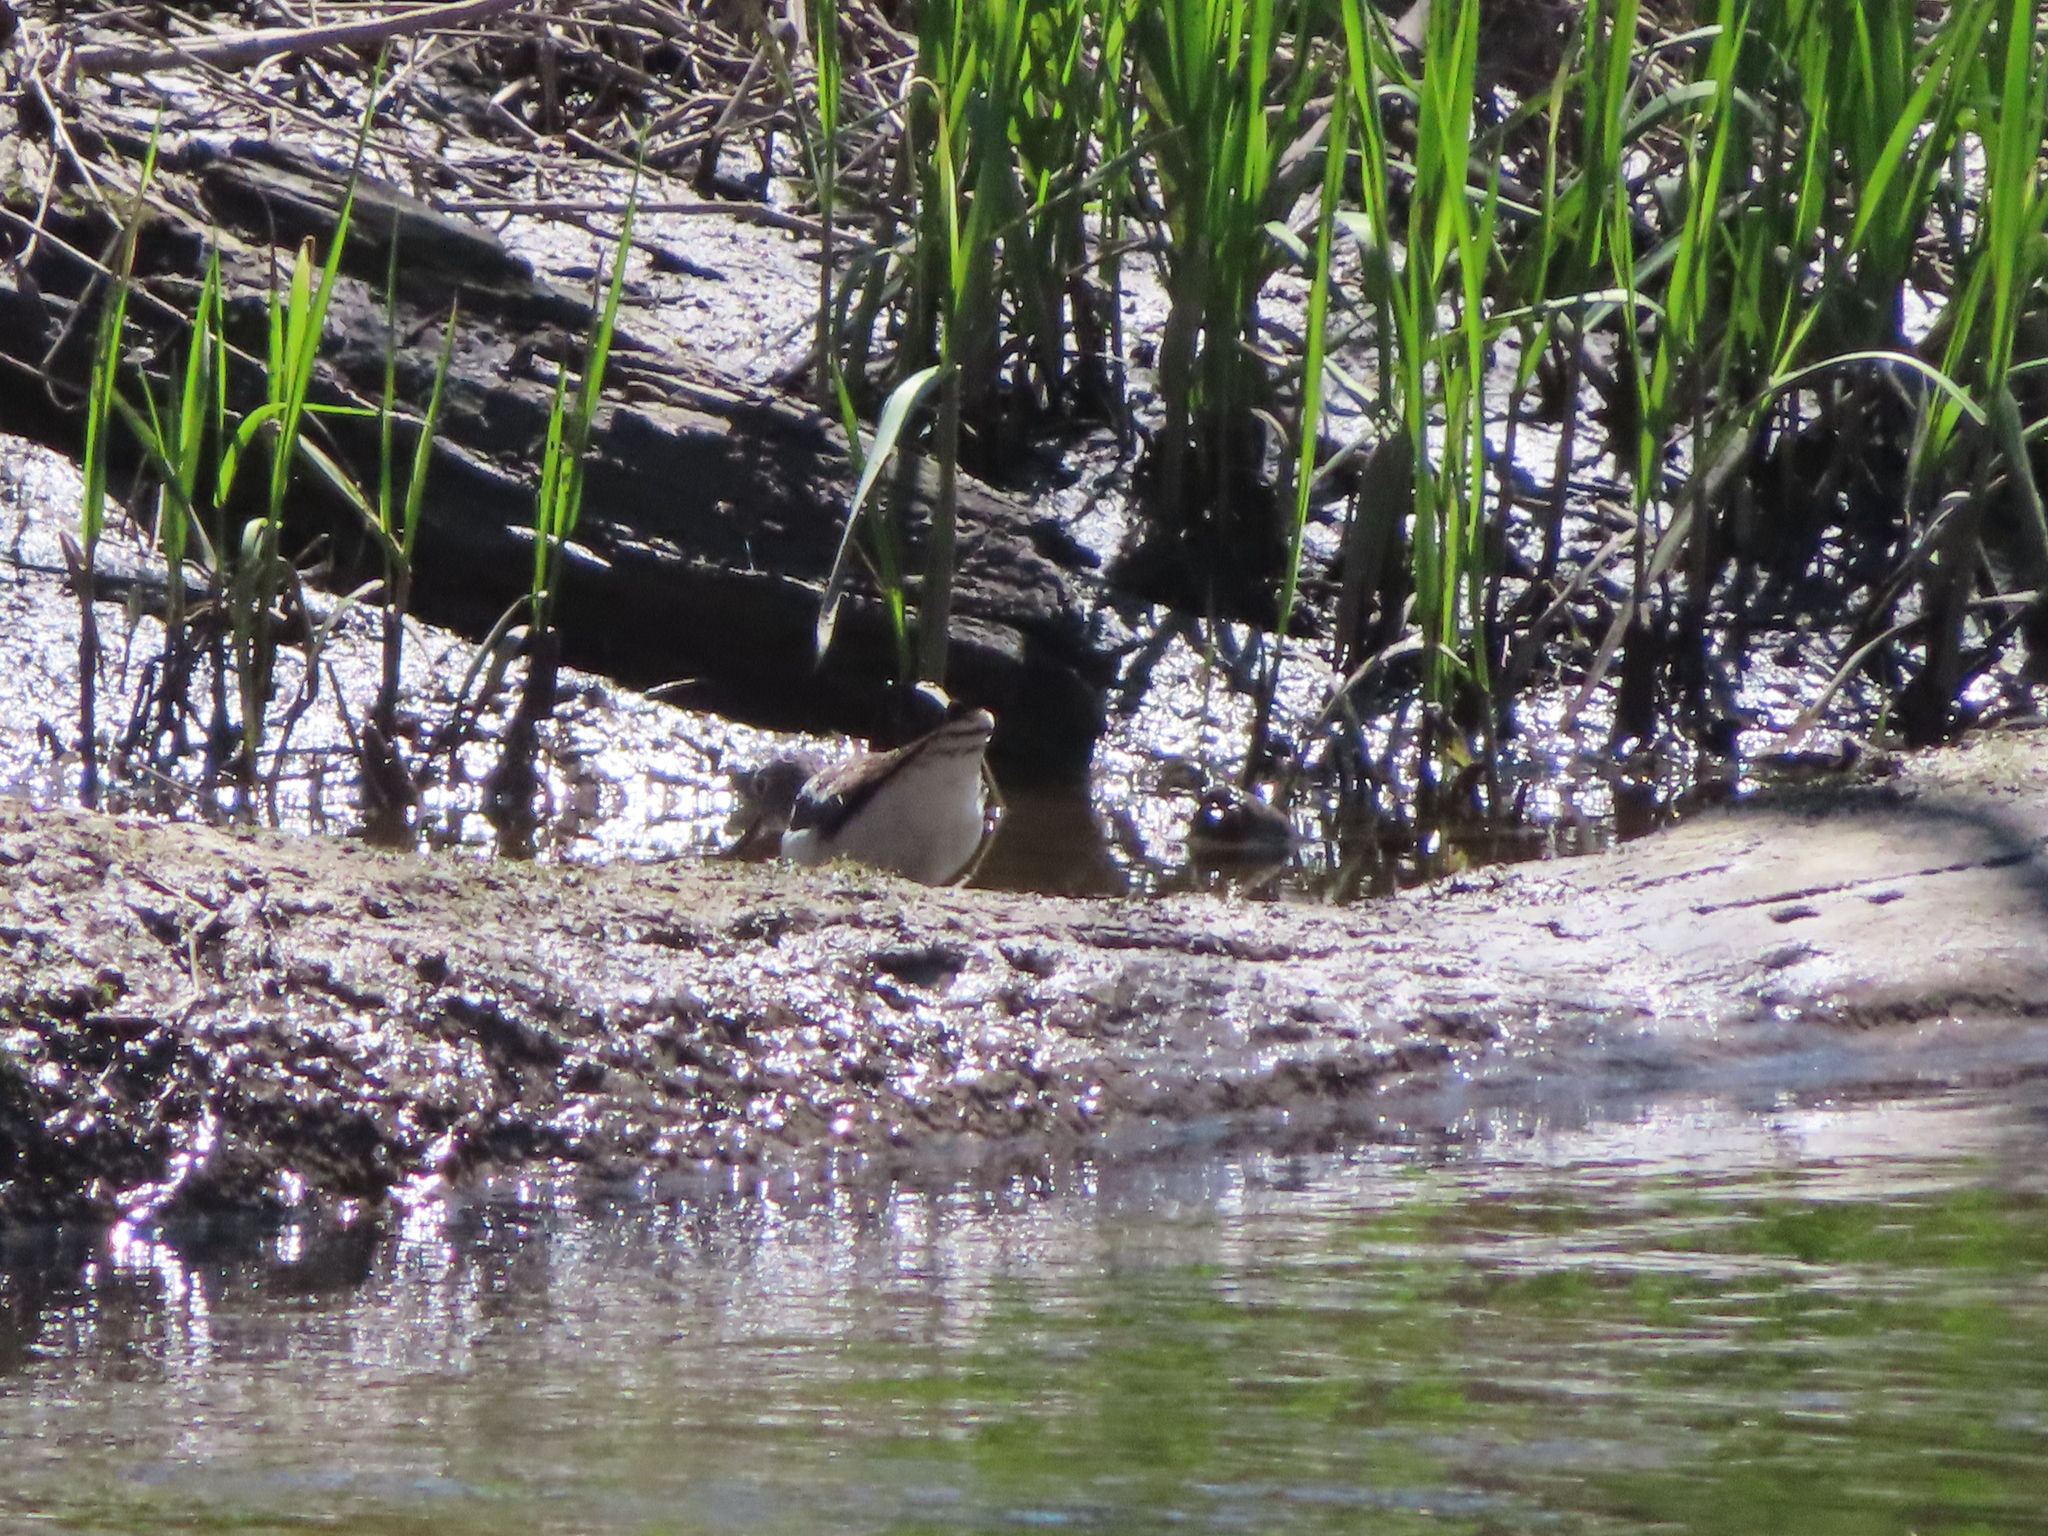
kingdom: Animalia
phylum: Chordata
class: Aves
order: Charadriiformes
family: Scolopacidae
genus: Tringa
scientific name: Tringa solitaria
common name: Solitary sandpiper
